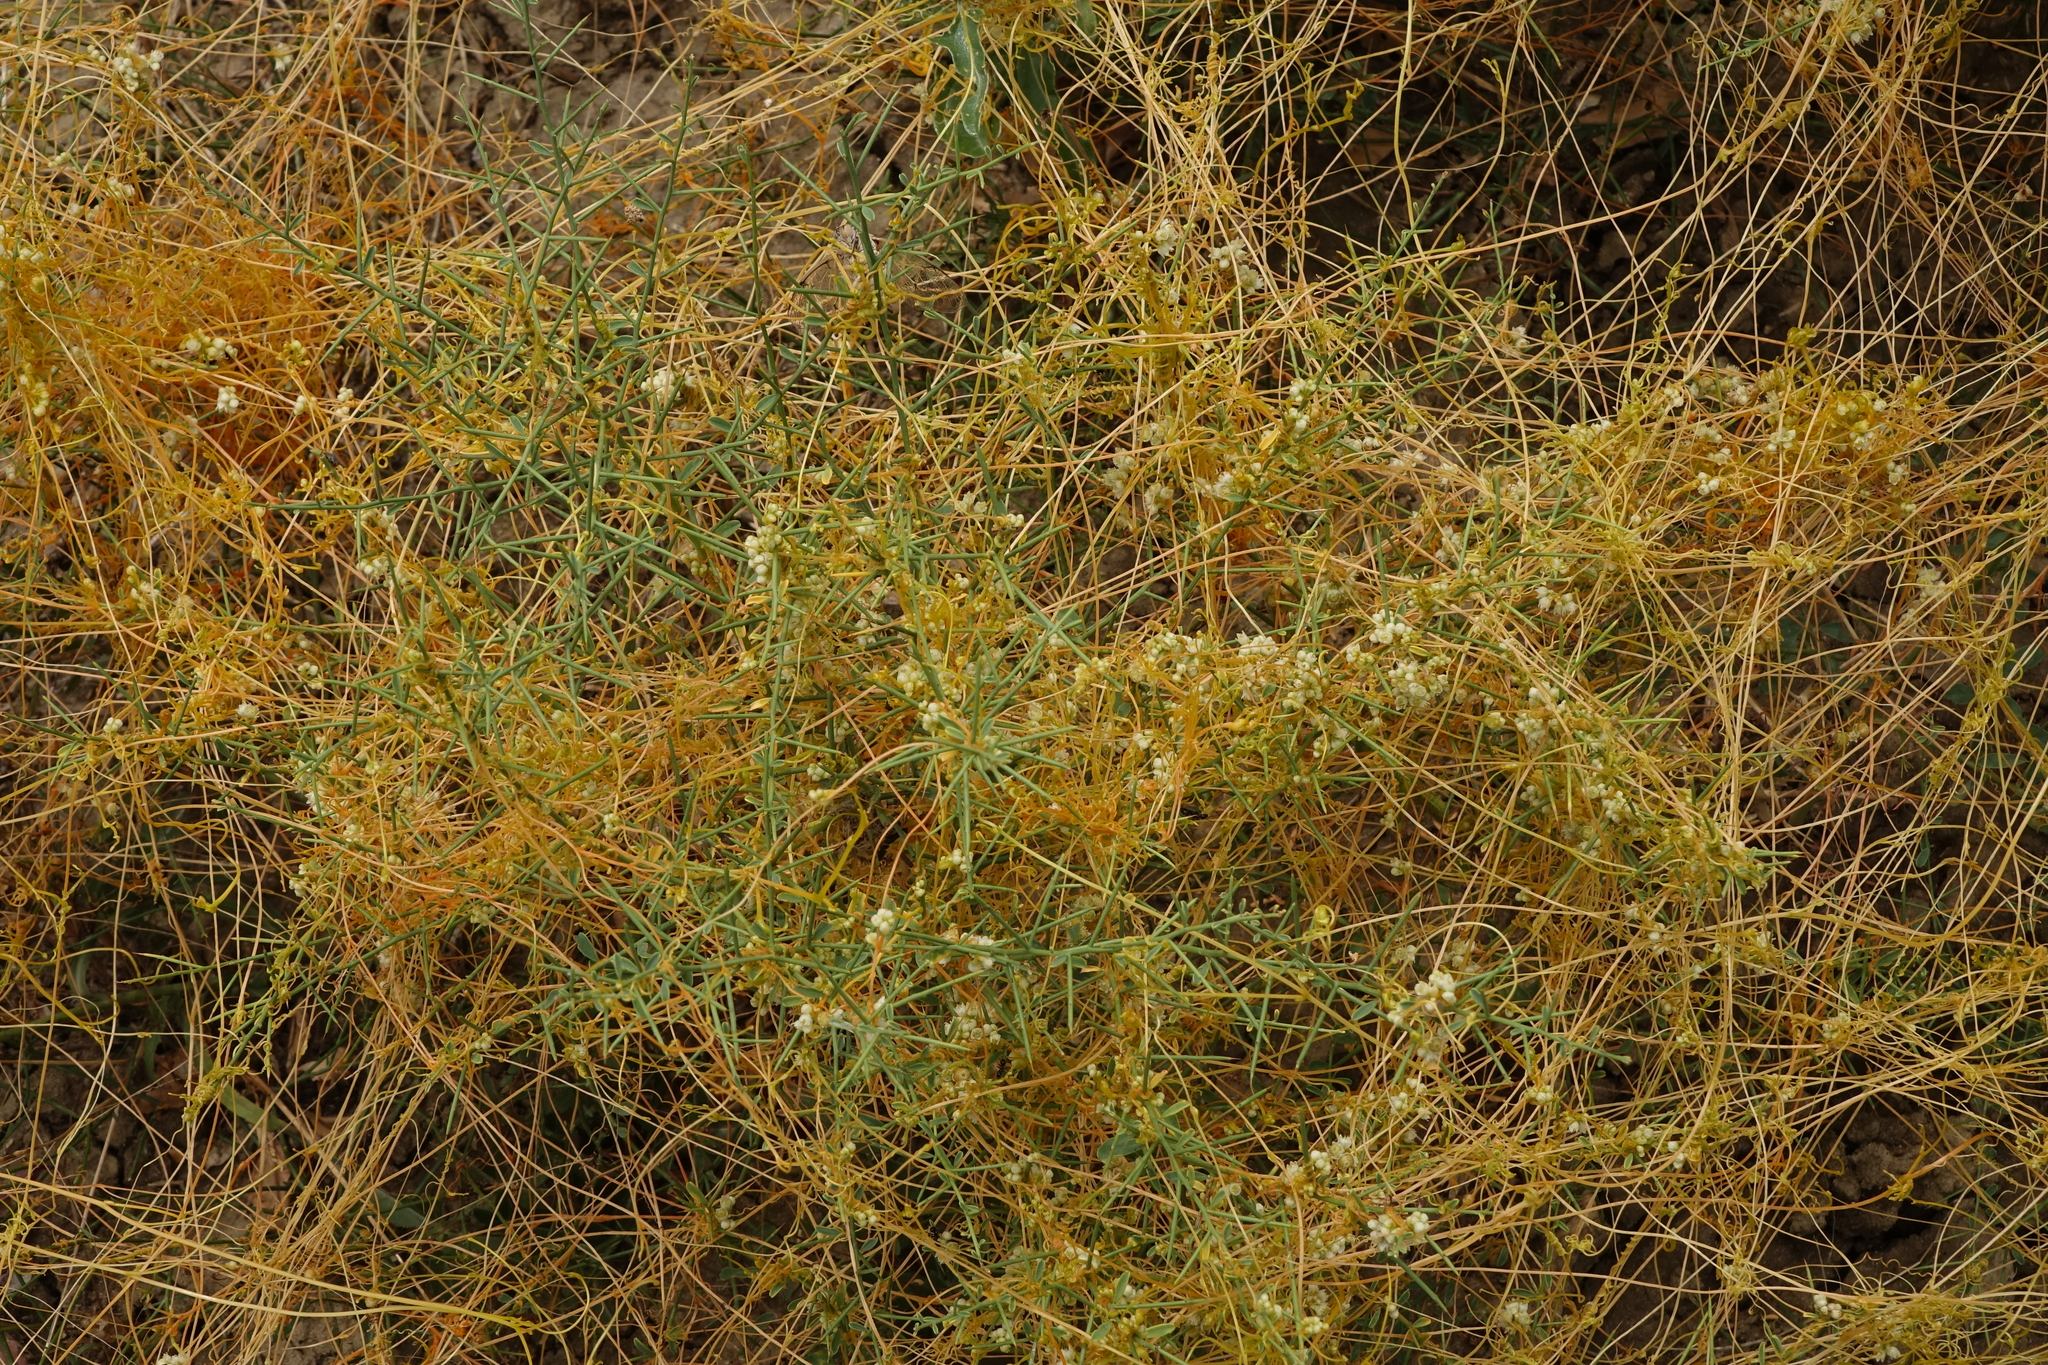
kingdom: Plantae
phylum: Tracheophyta
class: Magnoliopsida
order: Solanales
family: Convolvulaceae
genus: Cuscuta
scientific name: Cuscuta campestris
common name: Yellow dodder
